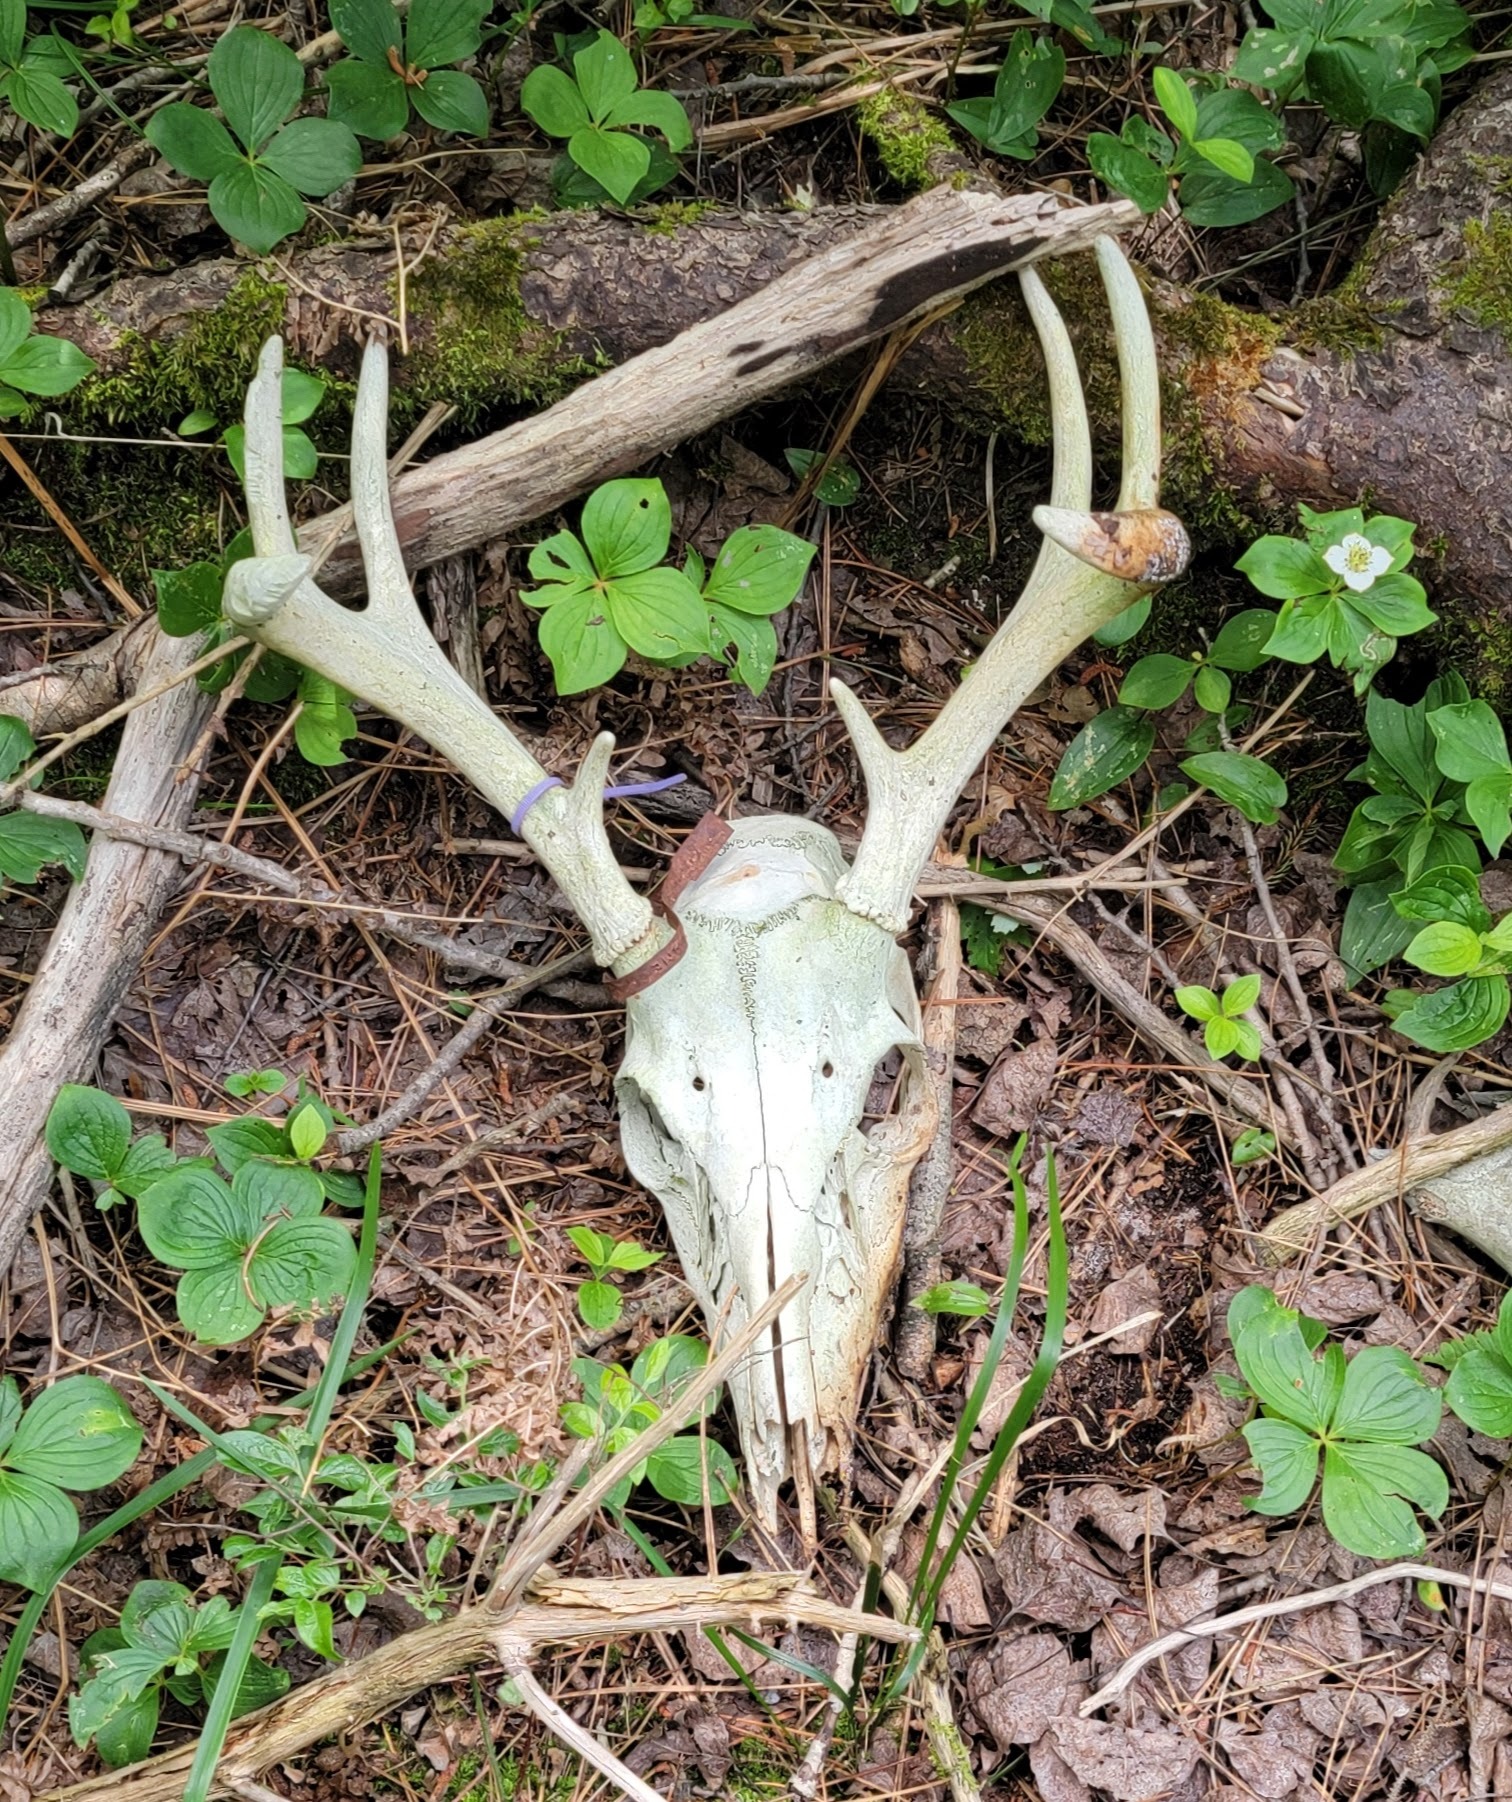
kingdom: Animalia
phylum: Chordata
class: Mammalia
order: Artiodactyla
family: Cervidae
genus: Odocoileus
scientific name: Odocoileus virginianus
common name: White-tailed deer
